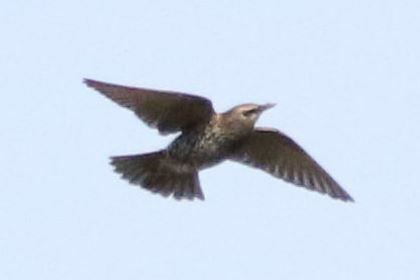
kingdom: Animalia
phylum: Chordata
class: Aves
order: Passeriformes
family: Sturnidae
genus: Sturnus
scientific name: Sturnus vulgaris
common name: Common starling
